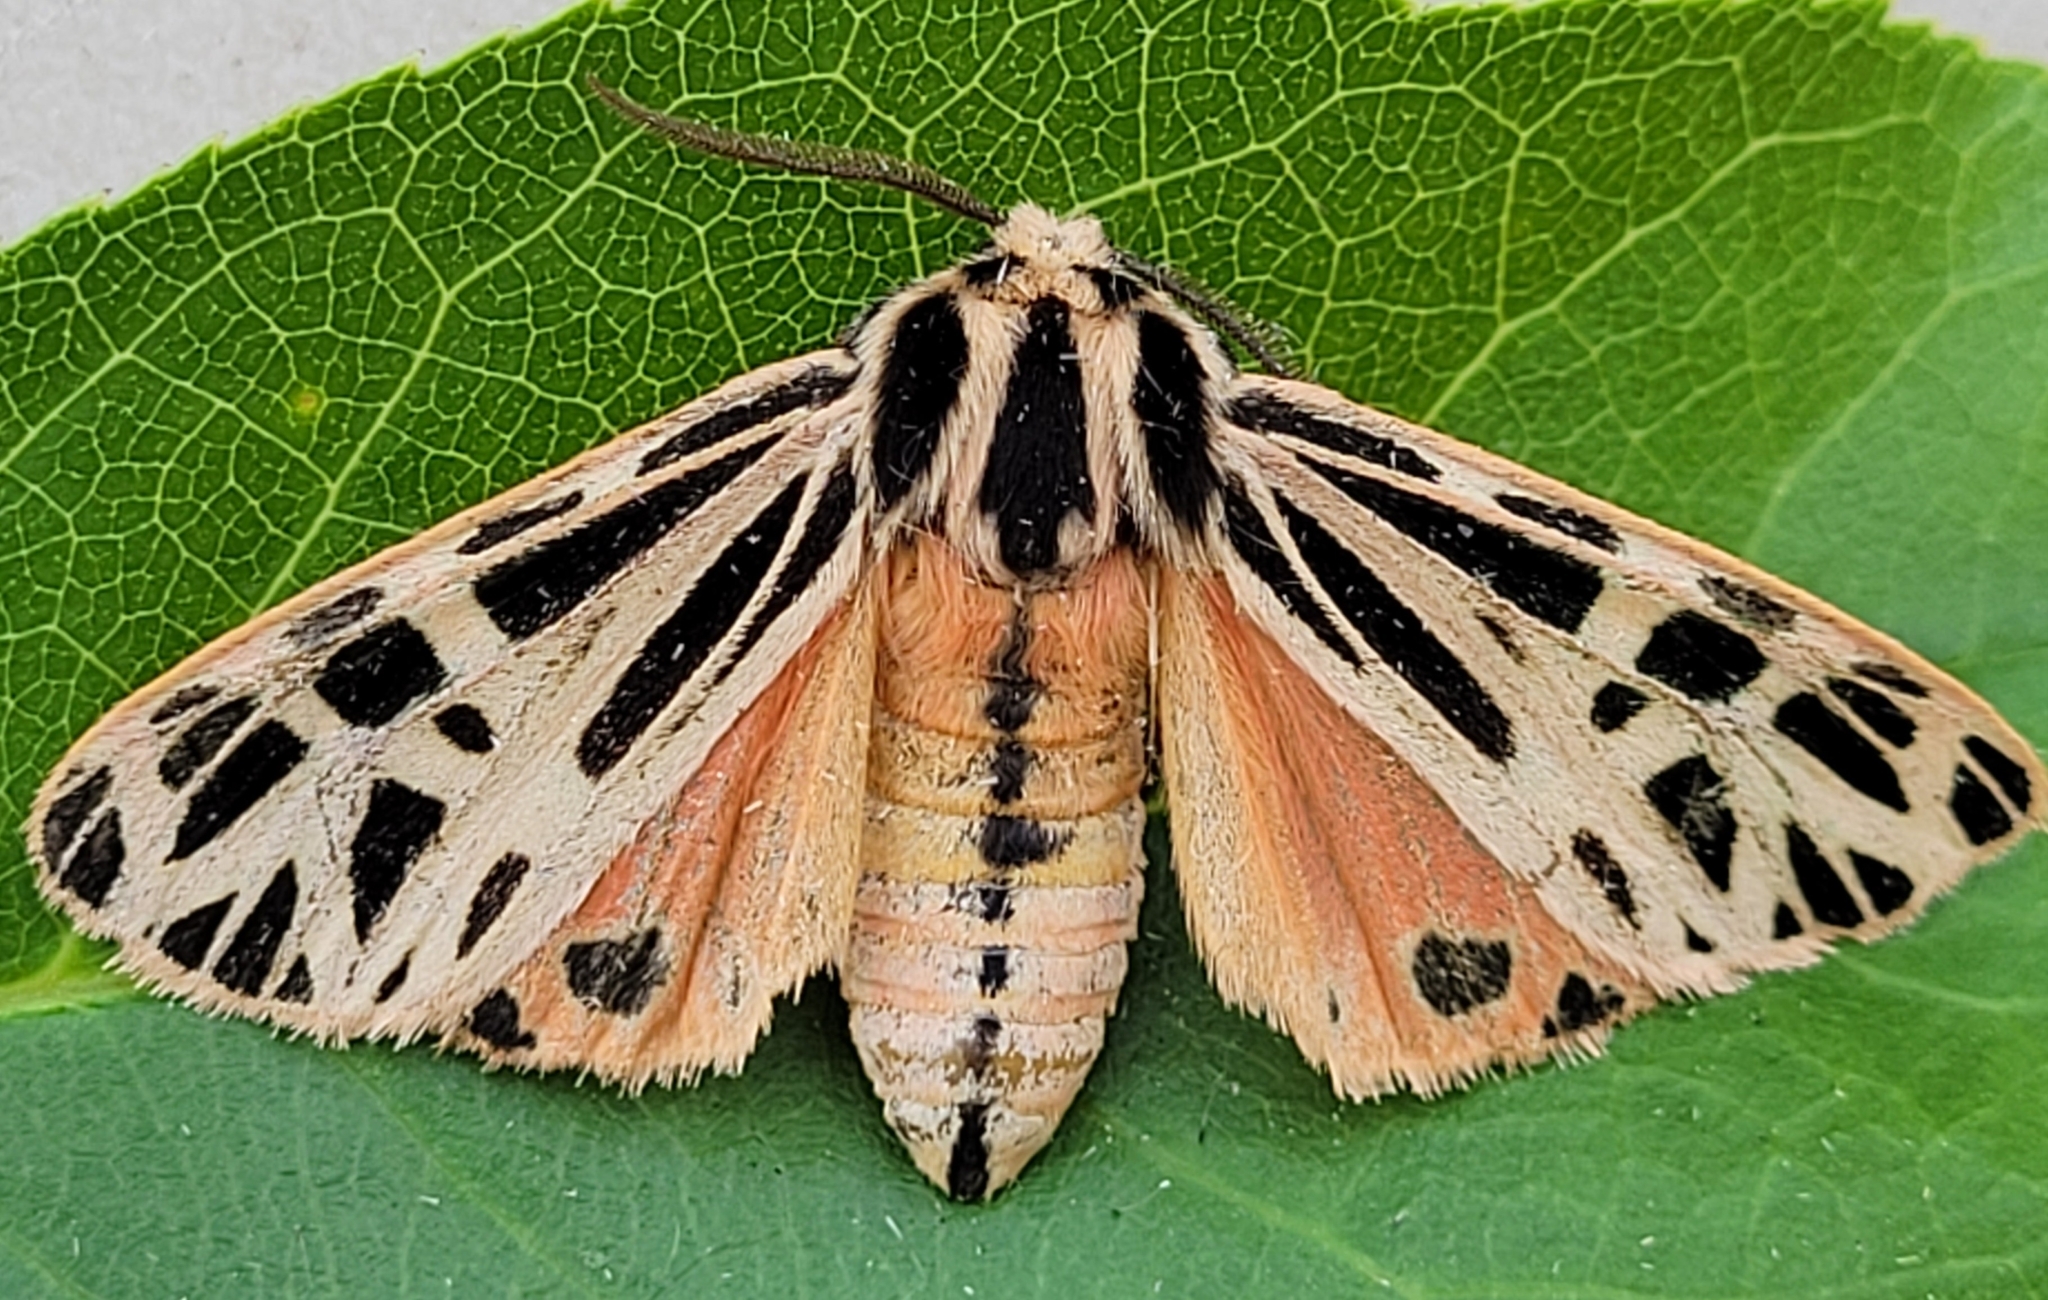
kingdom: Animalia
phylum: Arthropoda
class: Insecta
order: Lepidoptera
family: Erebidae
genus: Grammia
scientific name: Grammia parthenice
